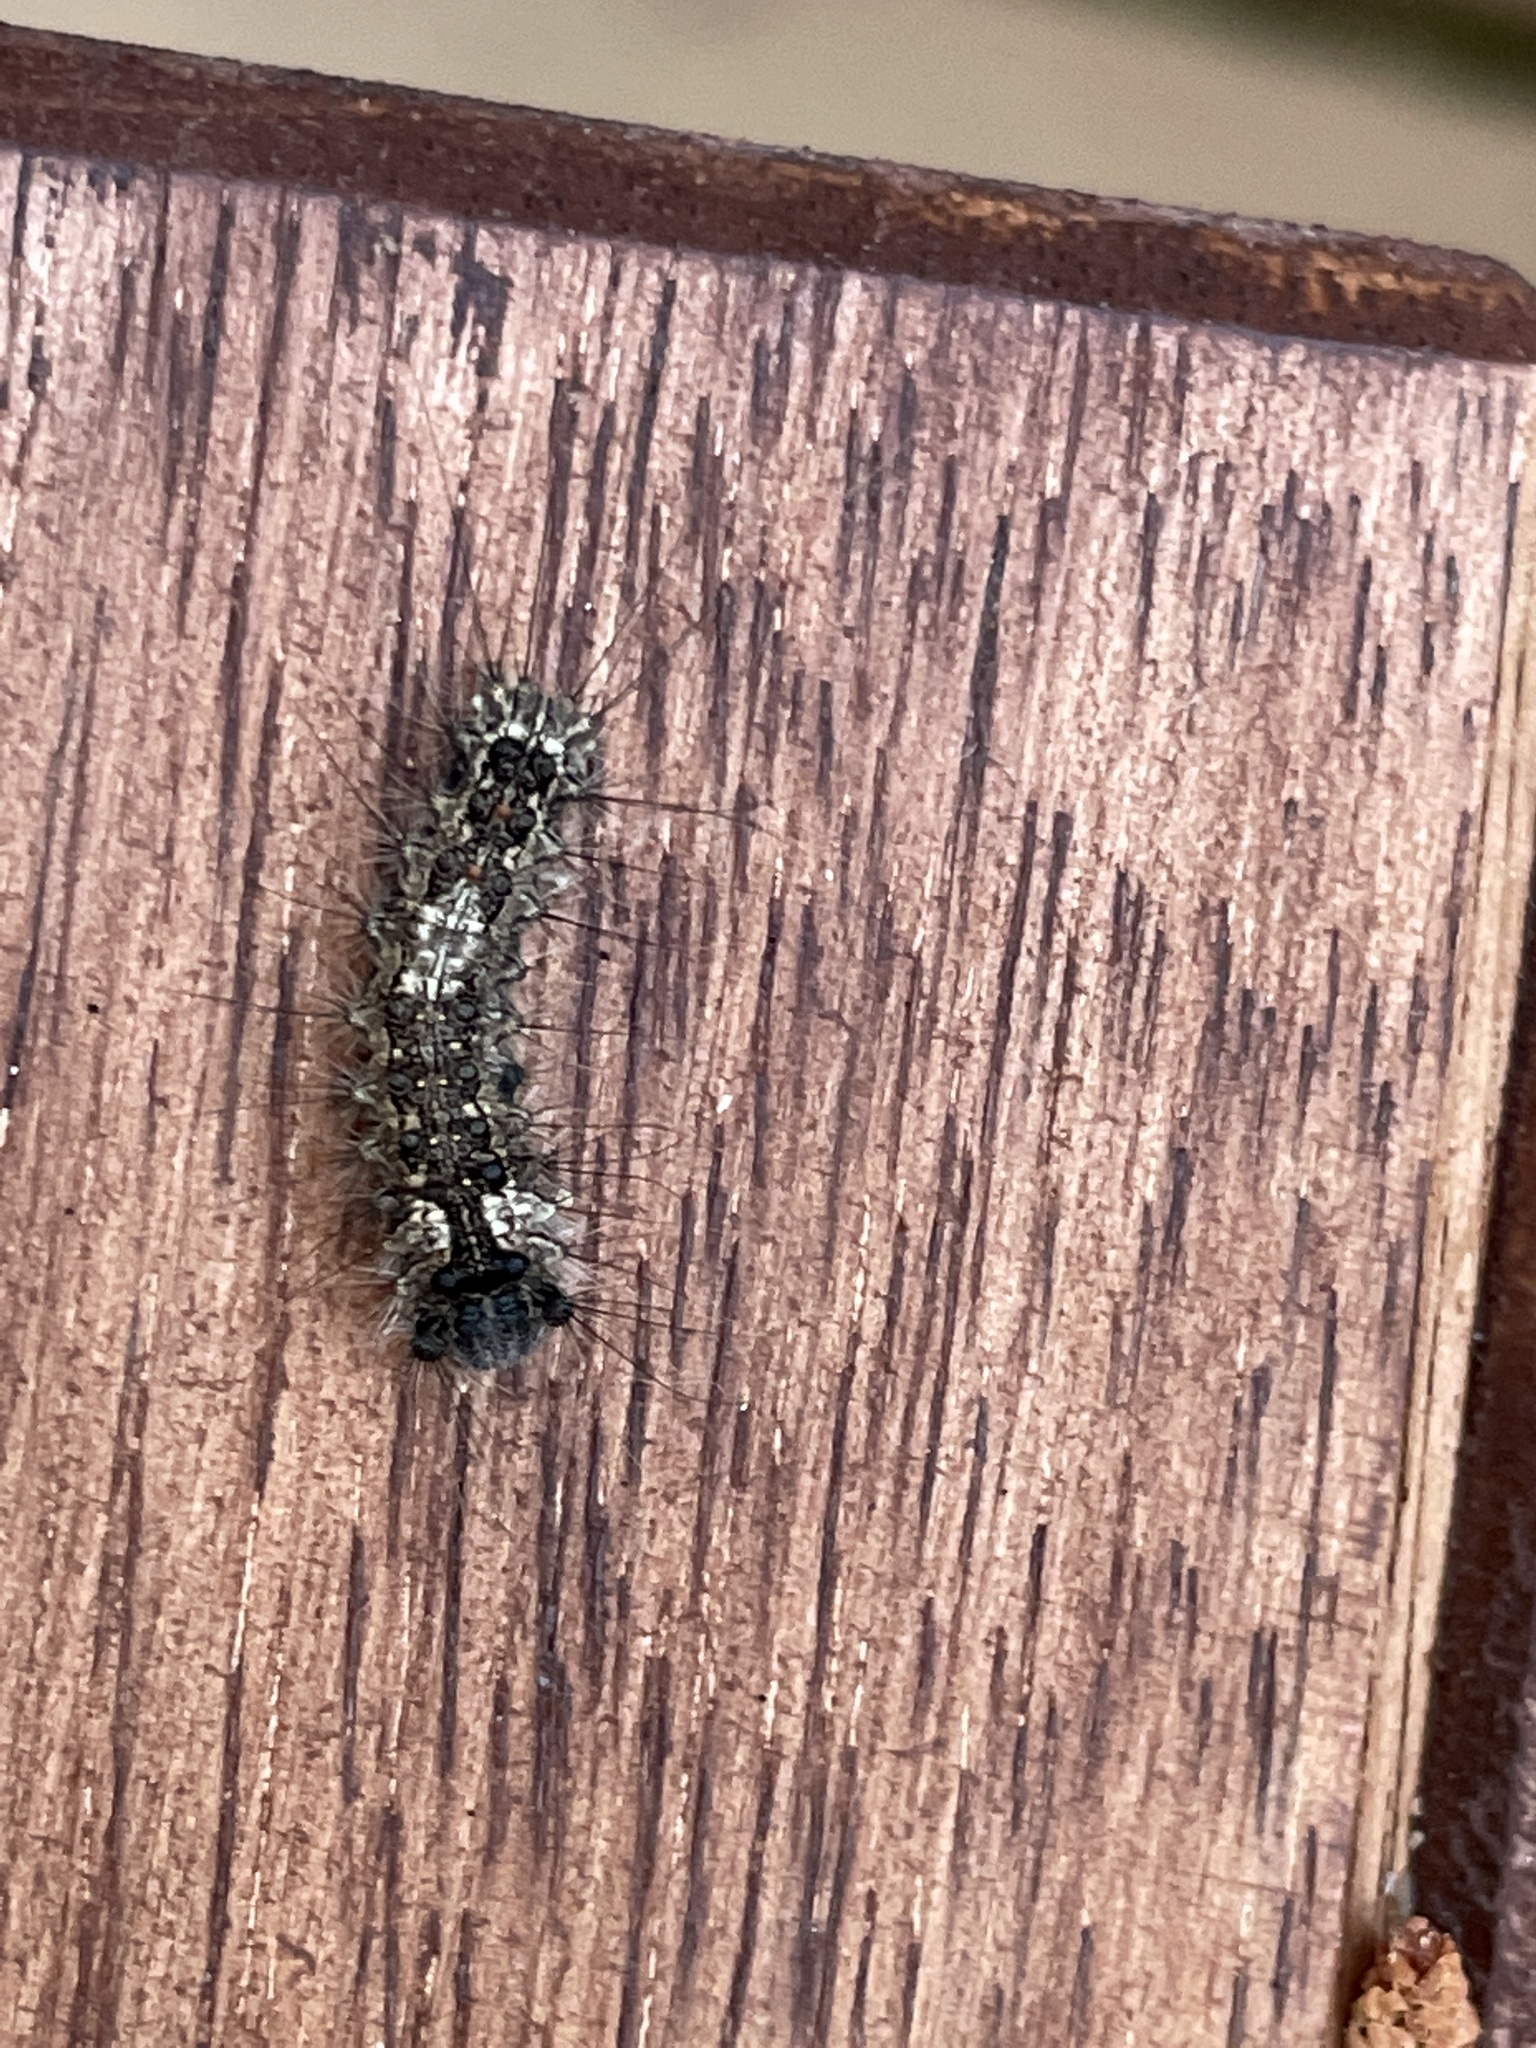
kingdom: Animalia
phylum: Arthropoda
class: Insecta
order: Lepidoptera
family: Erebidae
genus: Lymantria
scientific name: Lymantria monacha
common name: Black arches
